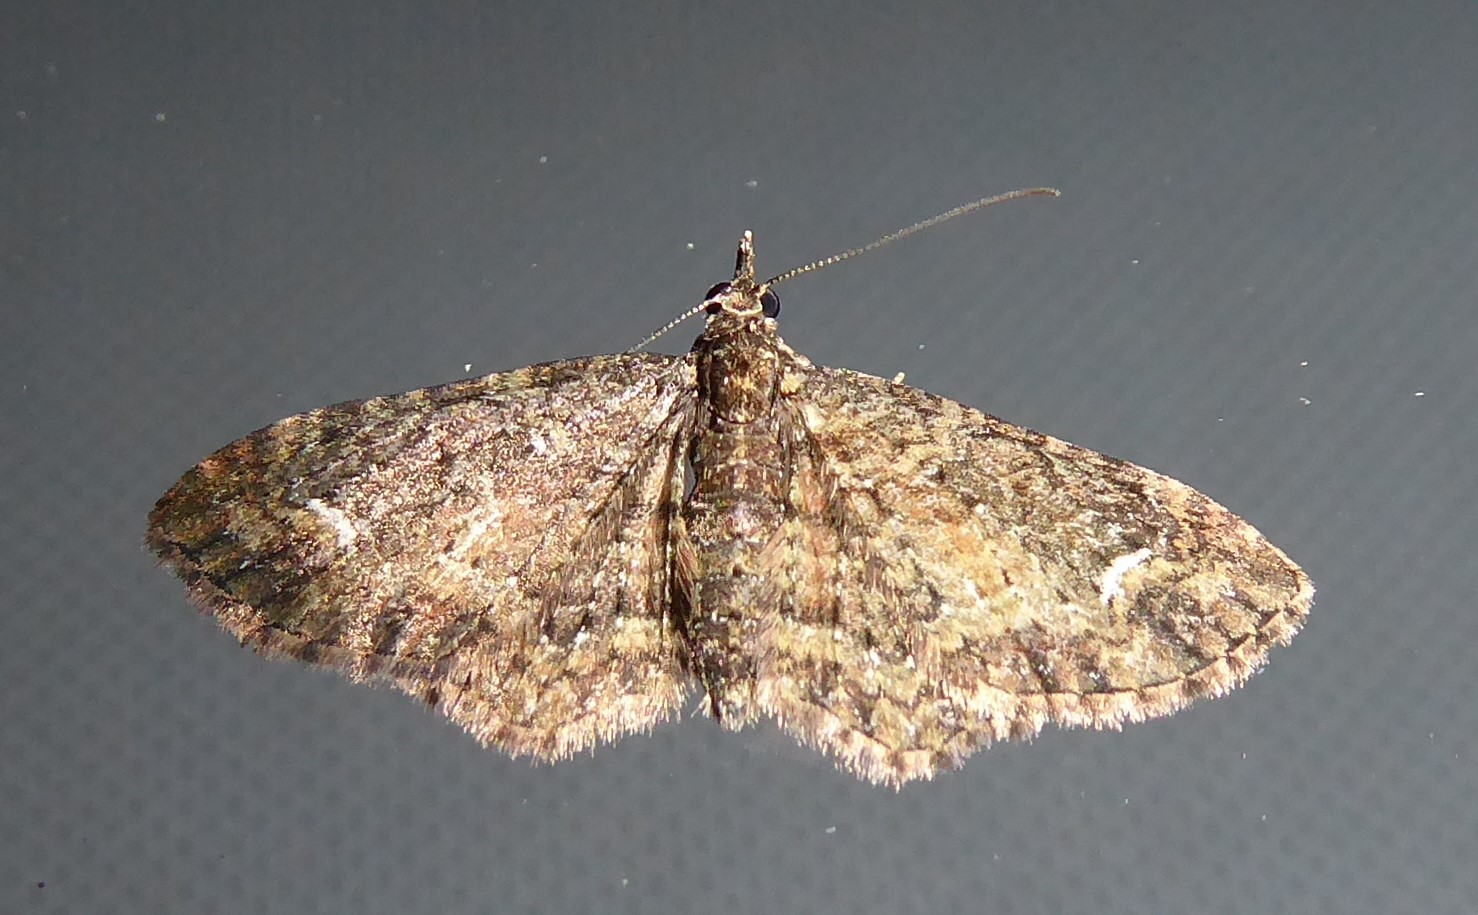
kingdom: Animalia
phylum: Arthropoda
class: Insecta
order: Lepidoptera
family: Geometridae
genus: Pasiphilodes
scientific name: Pasiphilodes testulata
